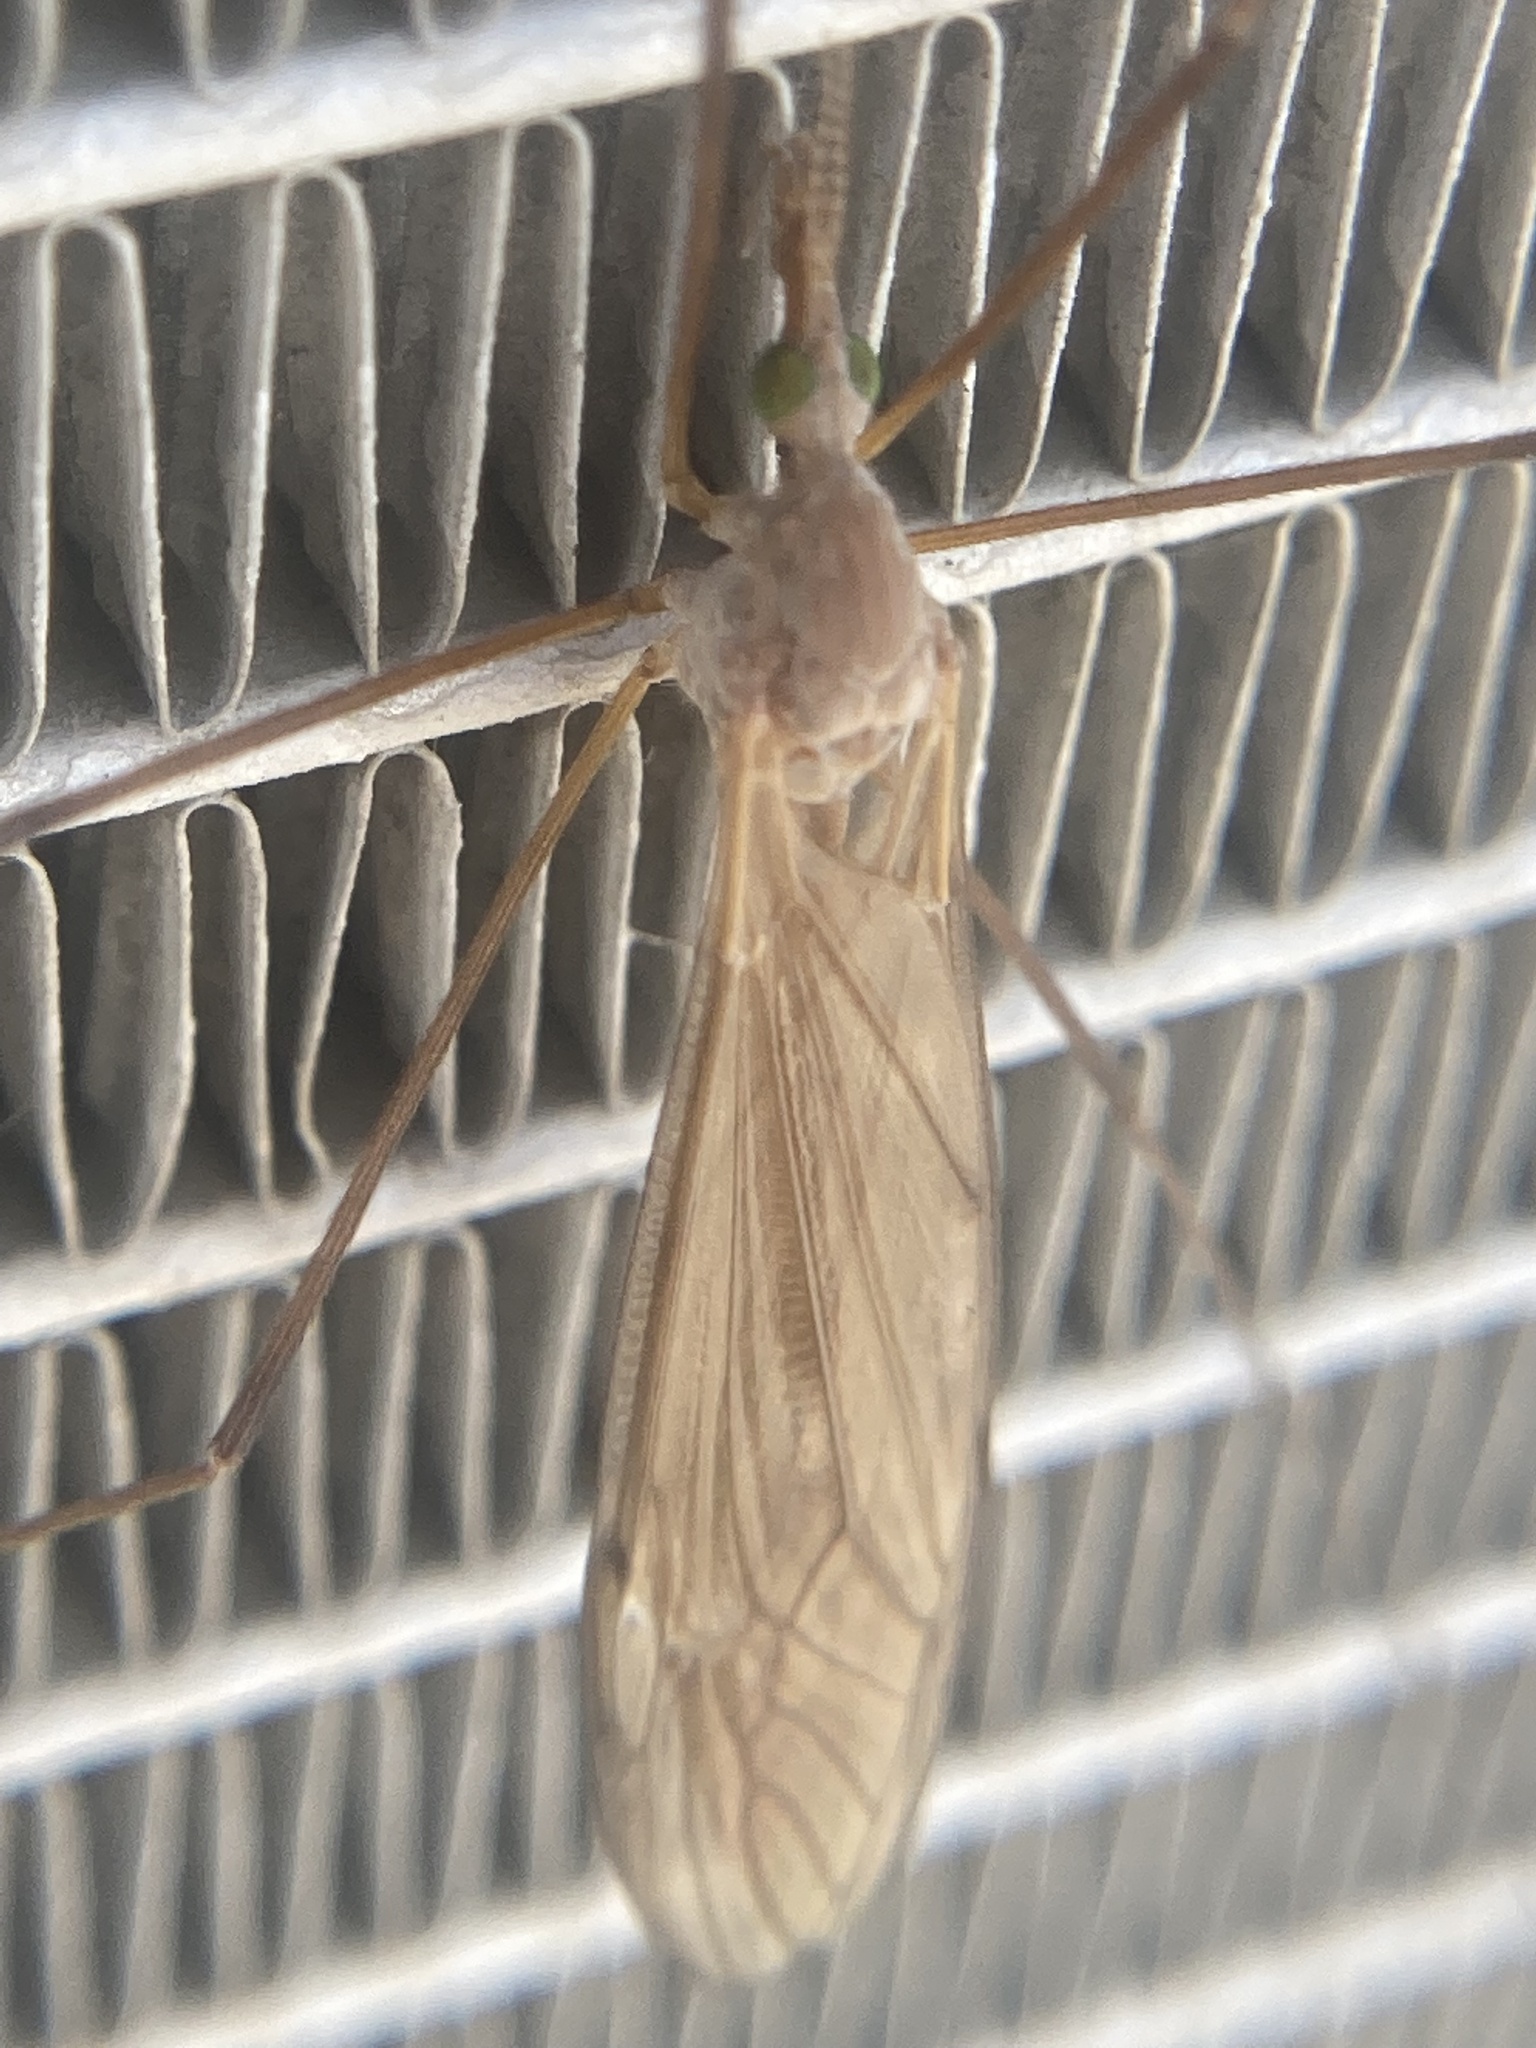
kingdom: Animalia
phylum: Arthropoda
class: Insecta
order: Diptera
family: Tipulidae
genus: Tipula
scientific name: Tipula
